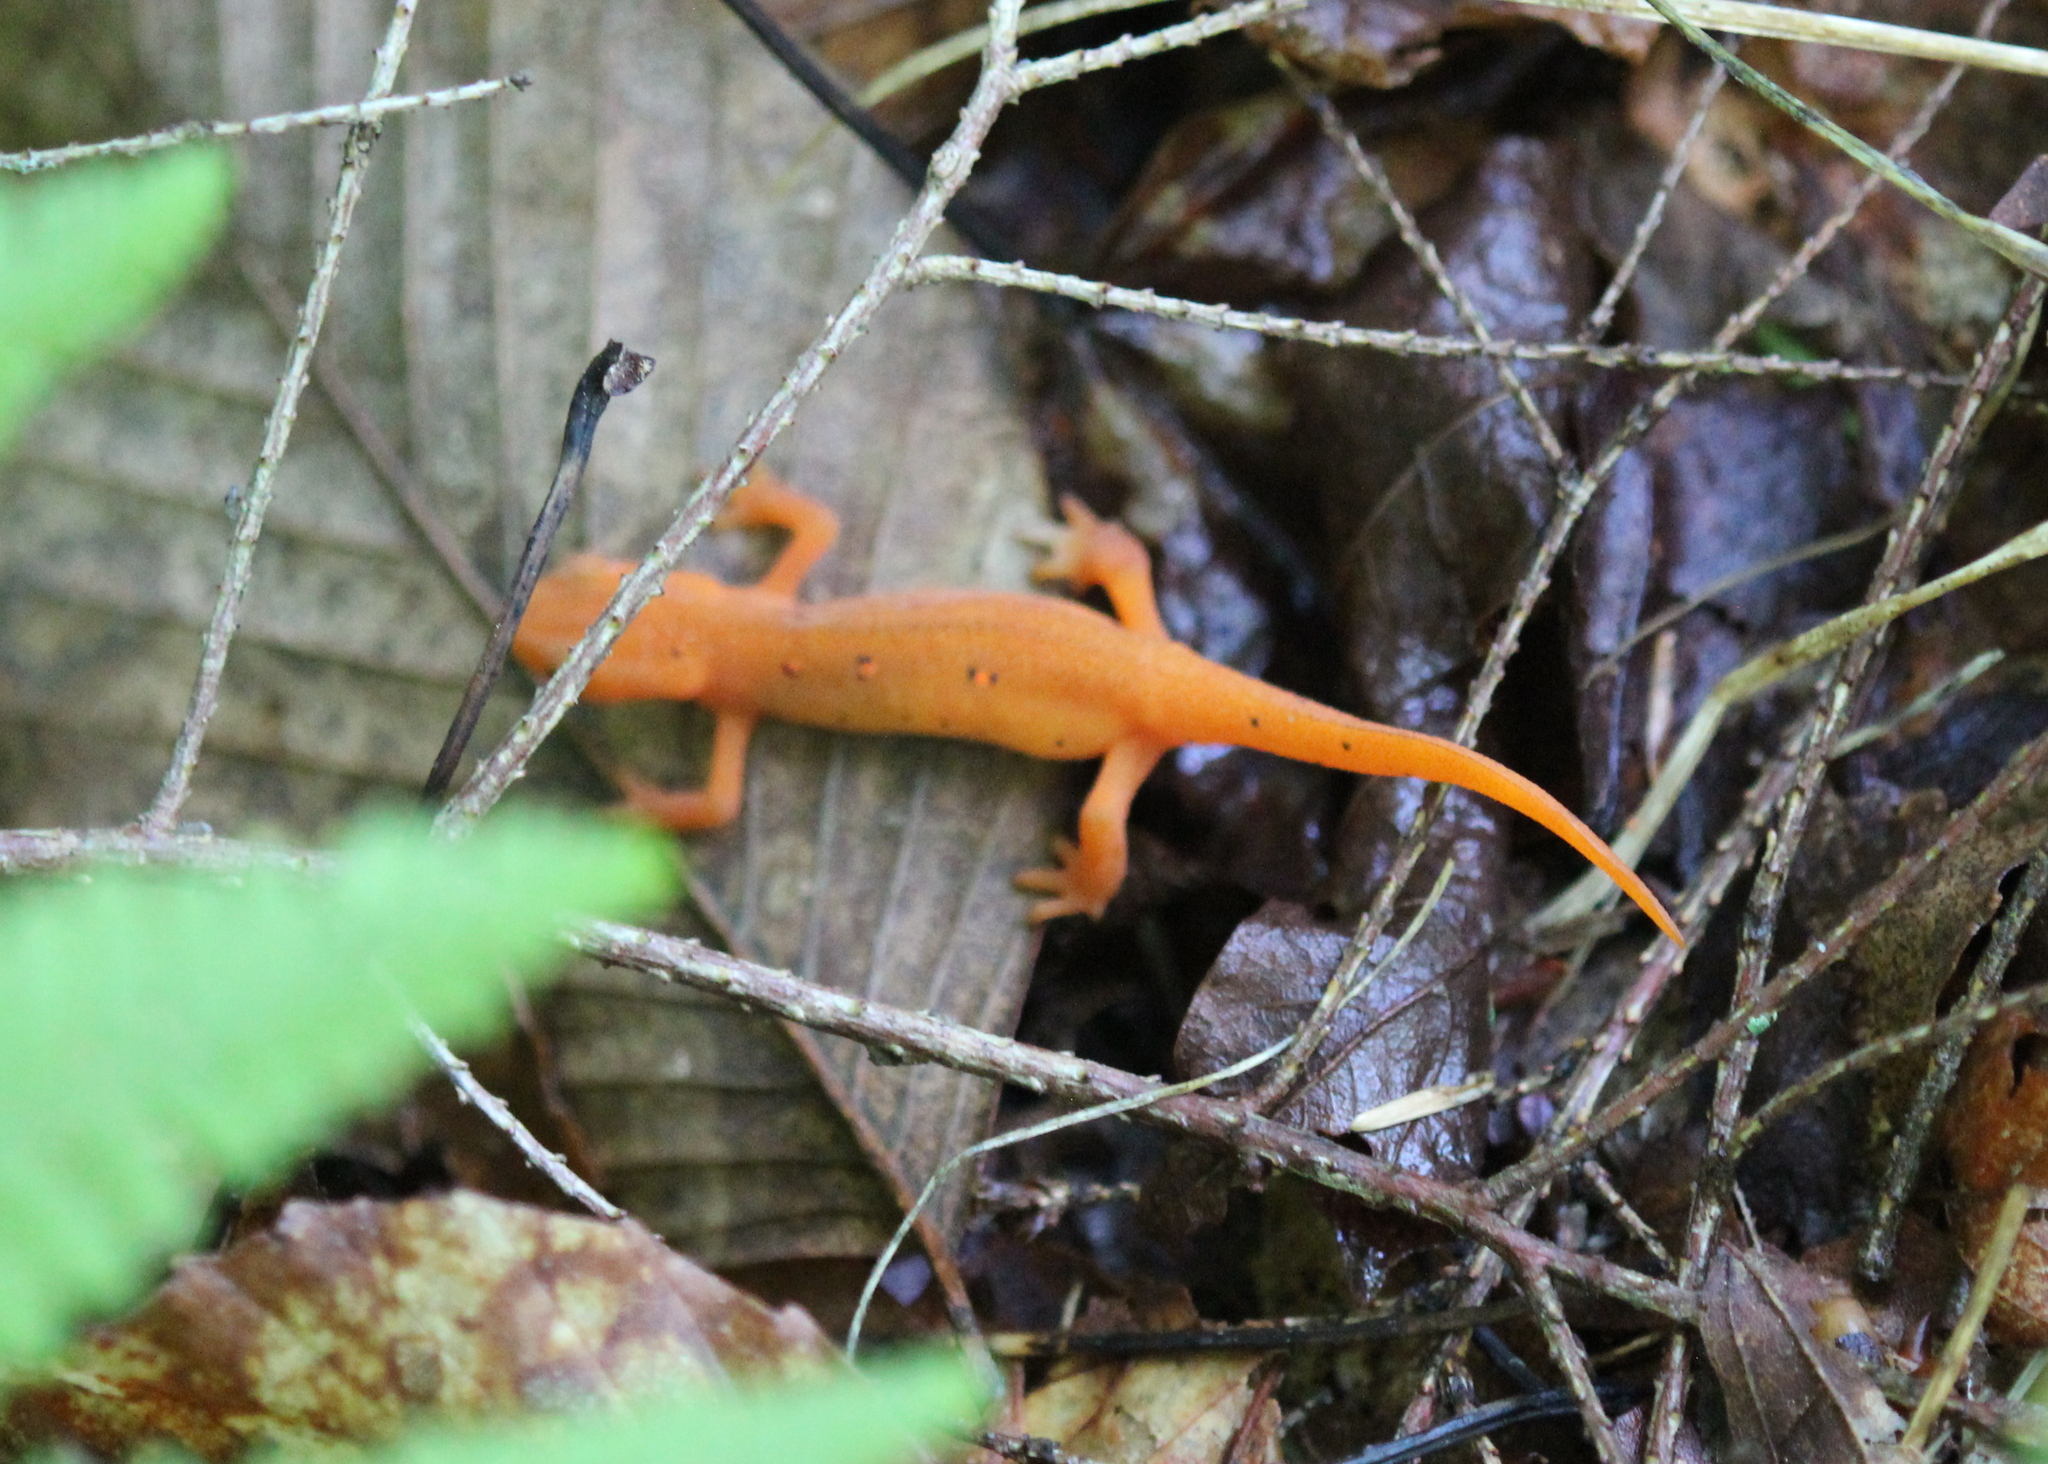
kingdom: Animalia
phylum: Chordata
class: Amphibia
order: Caudata
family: Salamandridae
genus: Notophthalmus
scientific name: Notophthalmus viridescens
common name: Eastern newt
